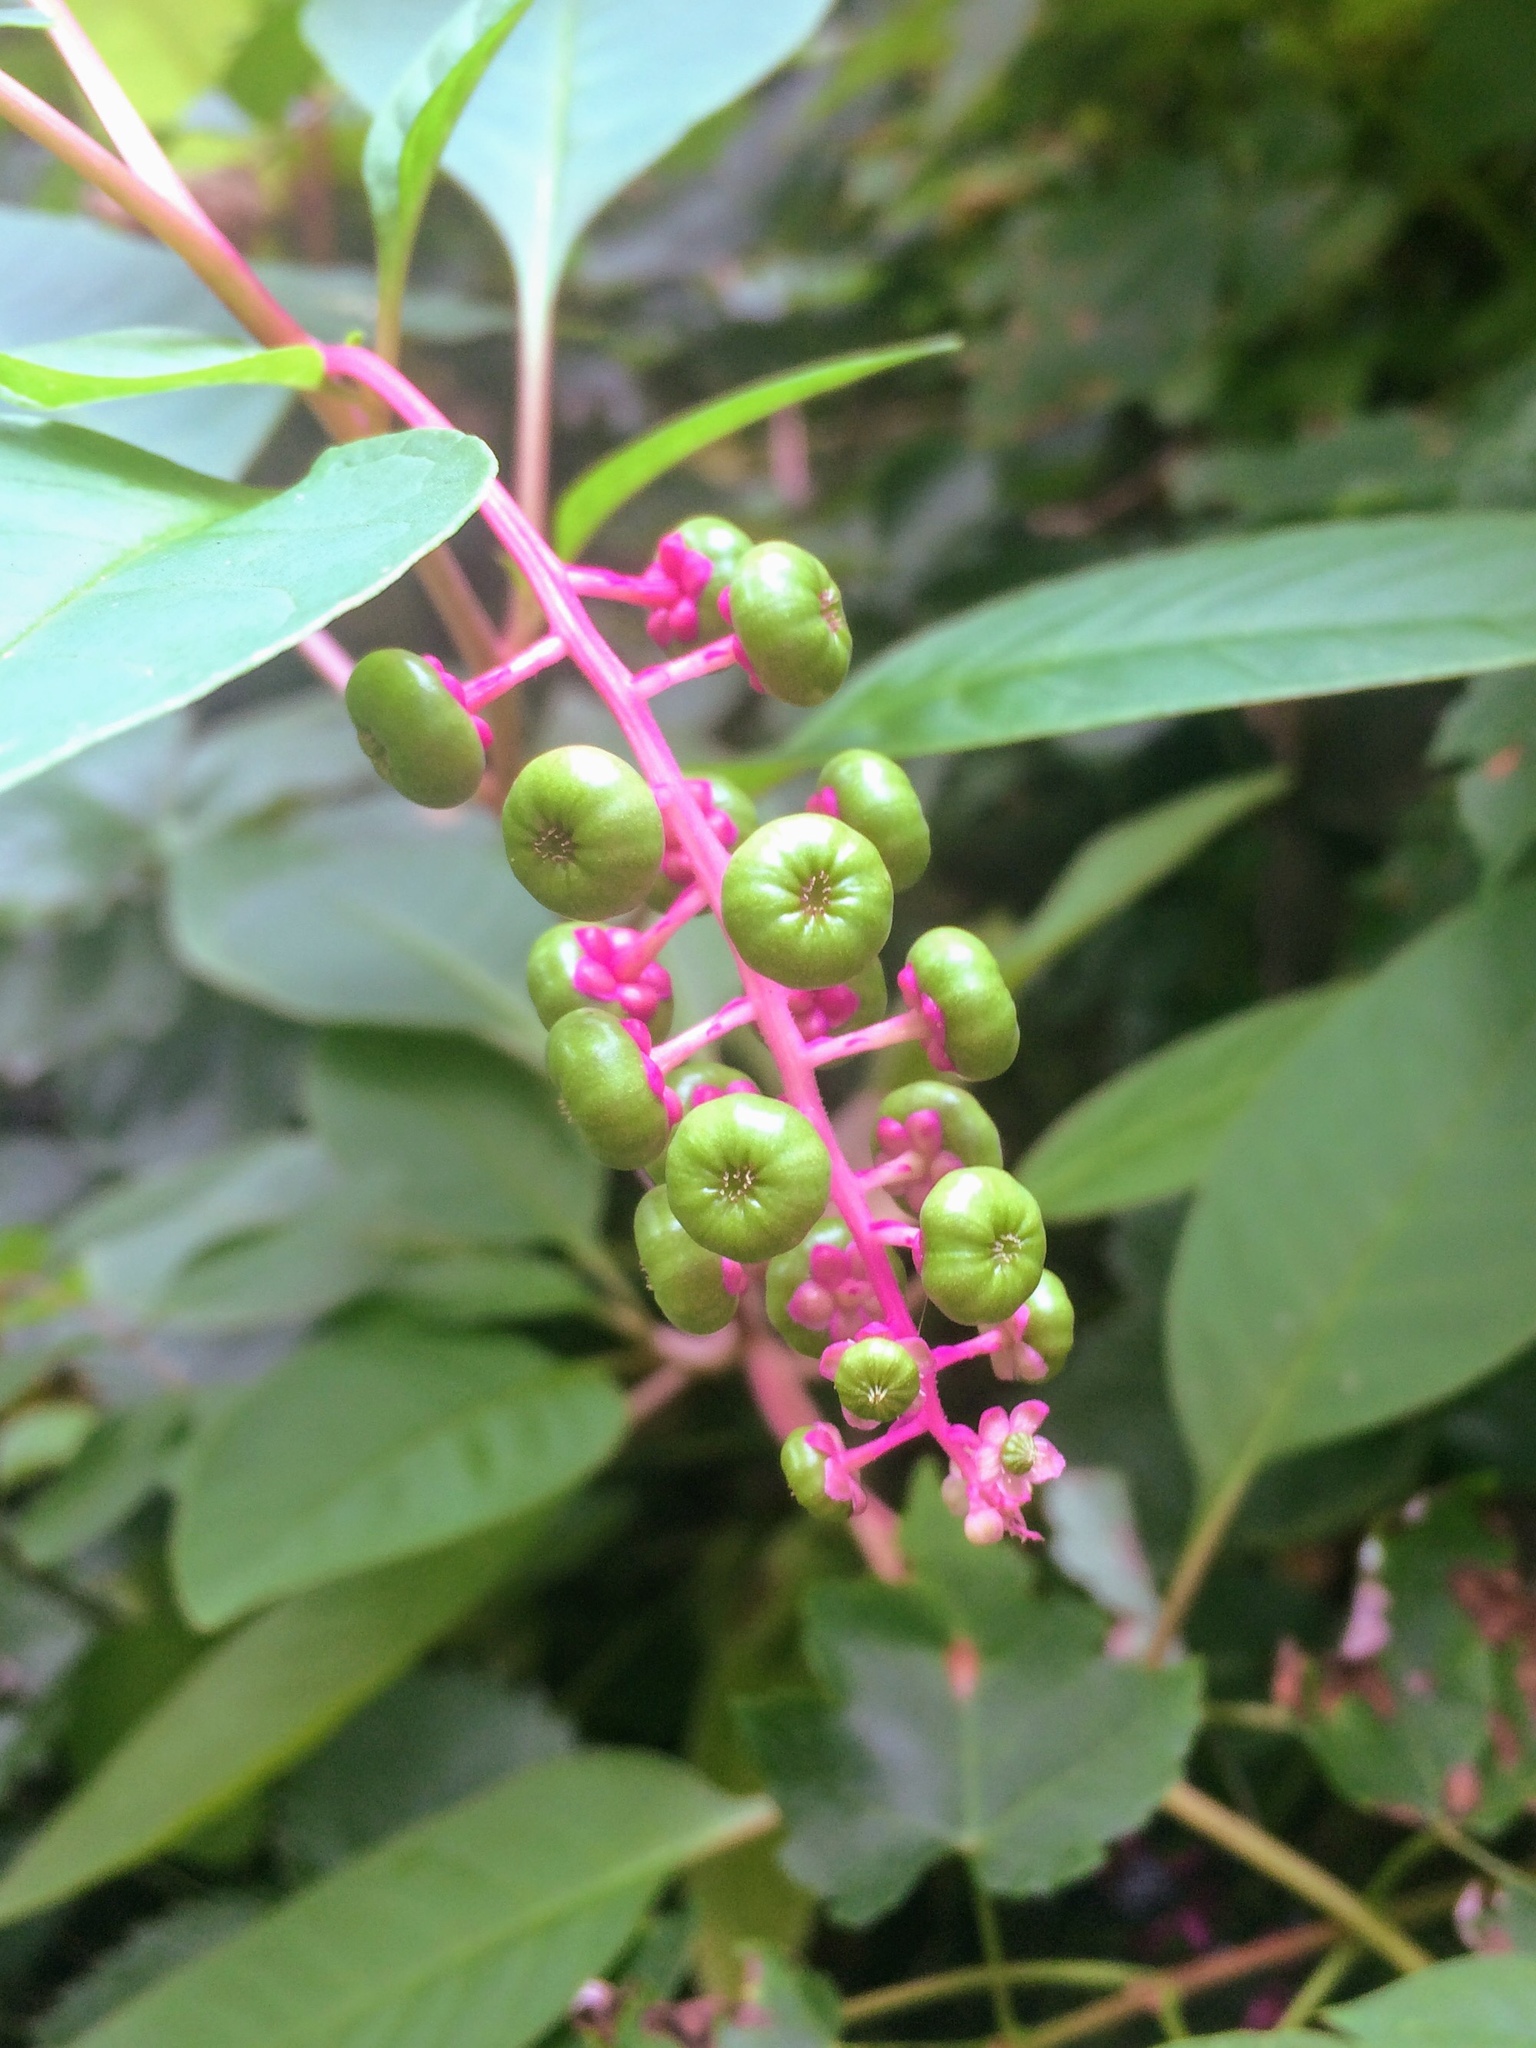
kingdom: Plantae
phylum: Tracheophyta
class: Magnoliopsida
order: Caryophyllales
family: Phytolaccaceae
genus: Phytolacca
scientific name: Phytolacca americana
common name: American pokeweed
